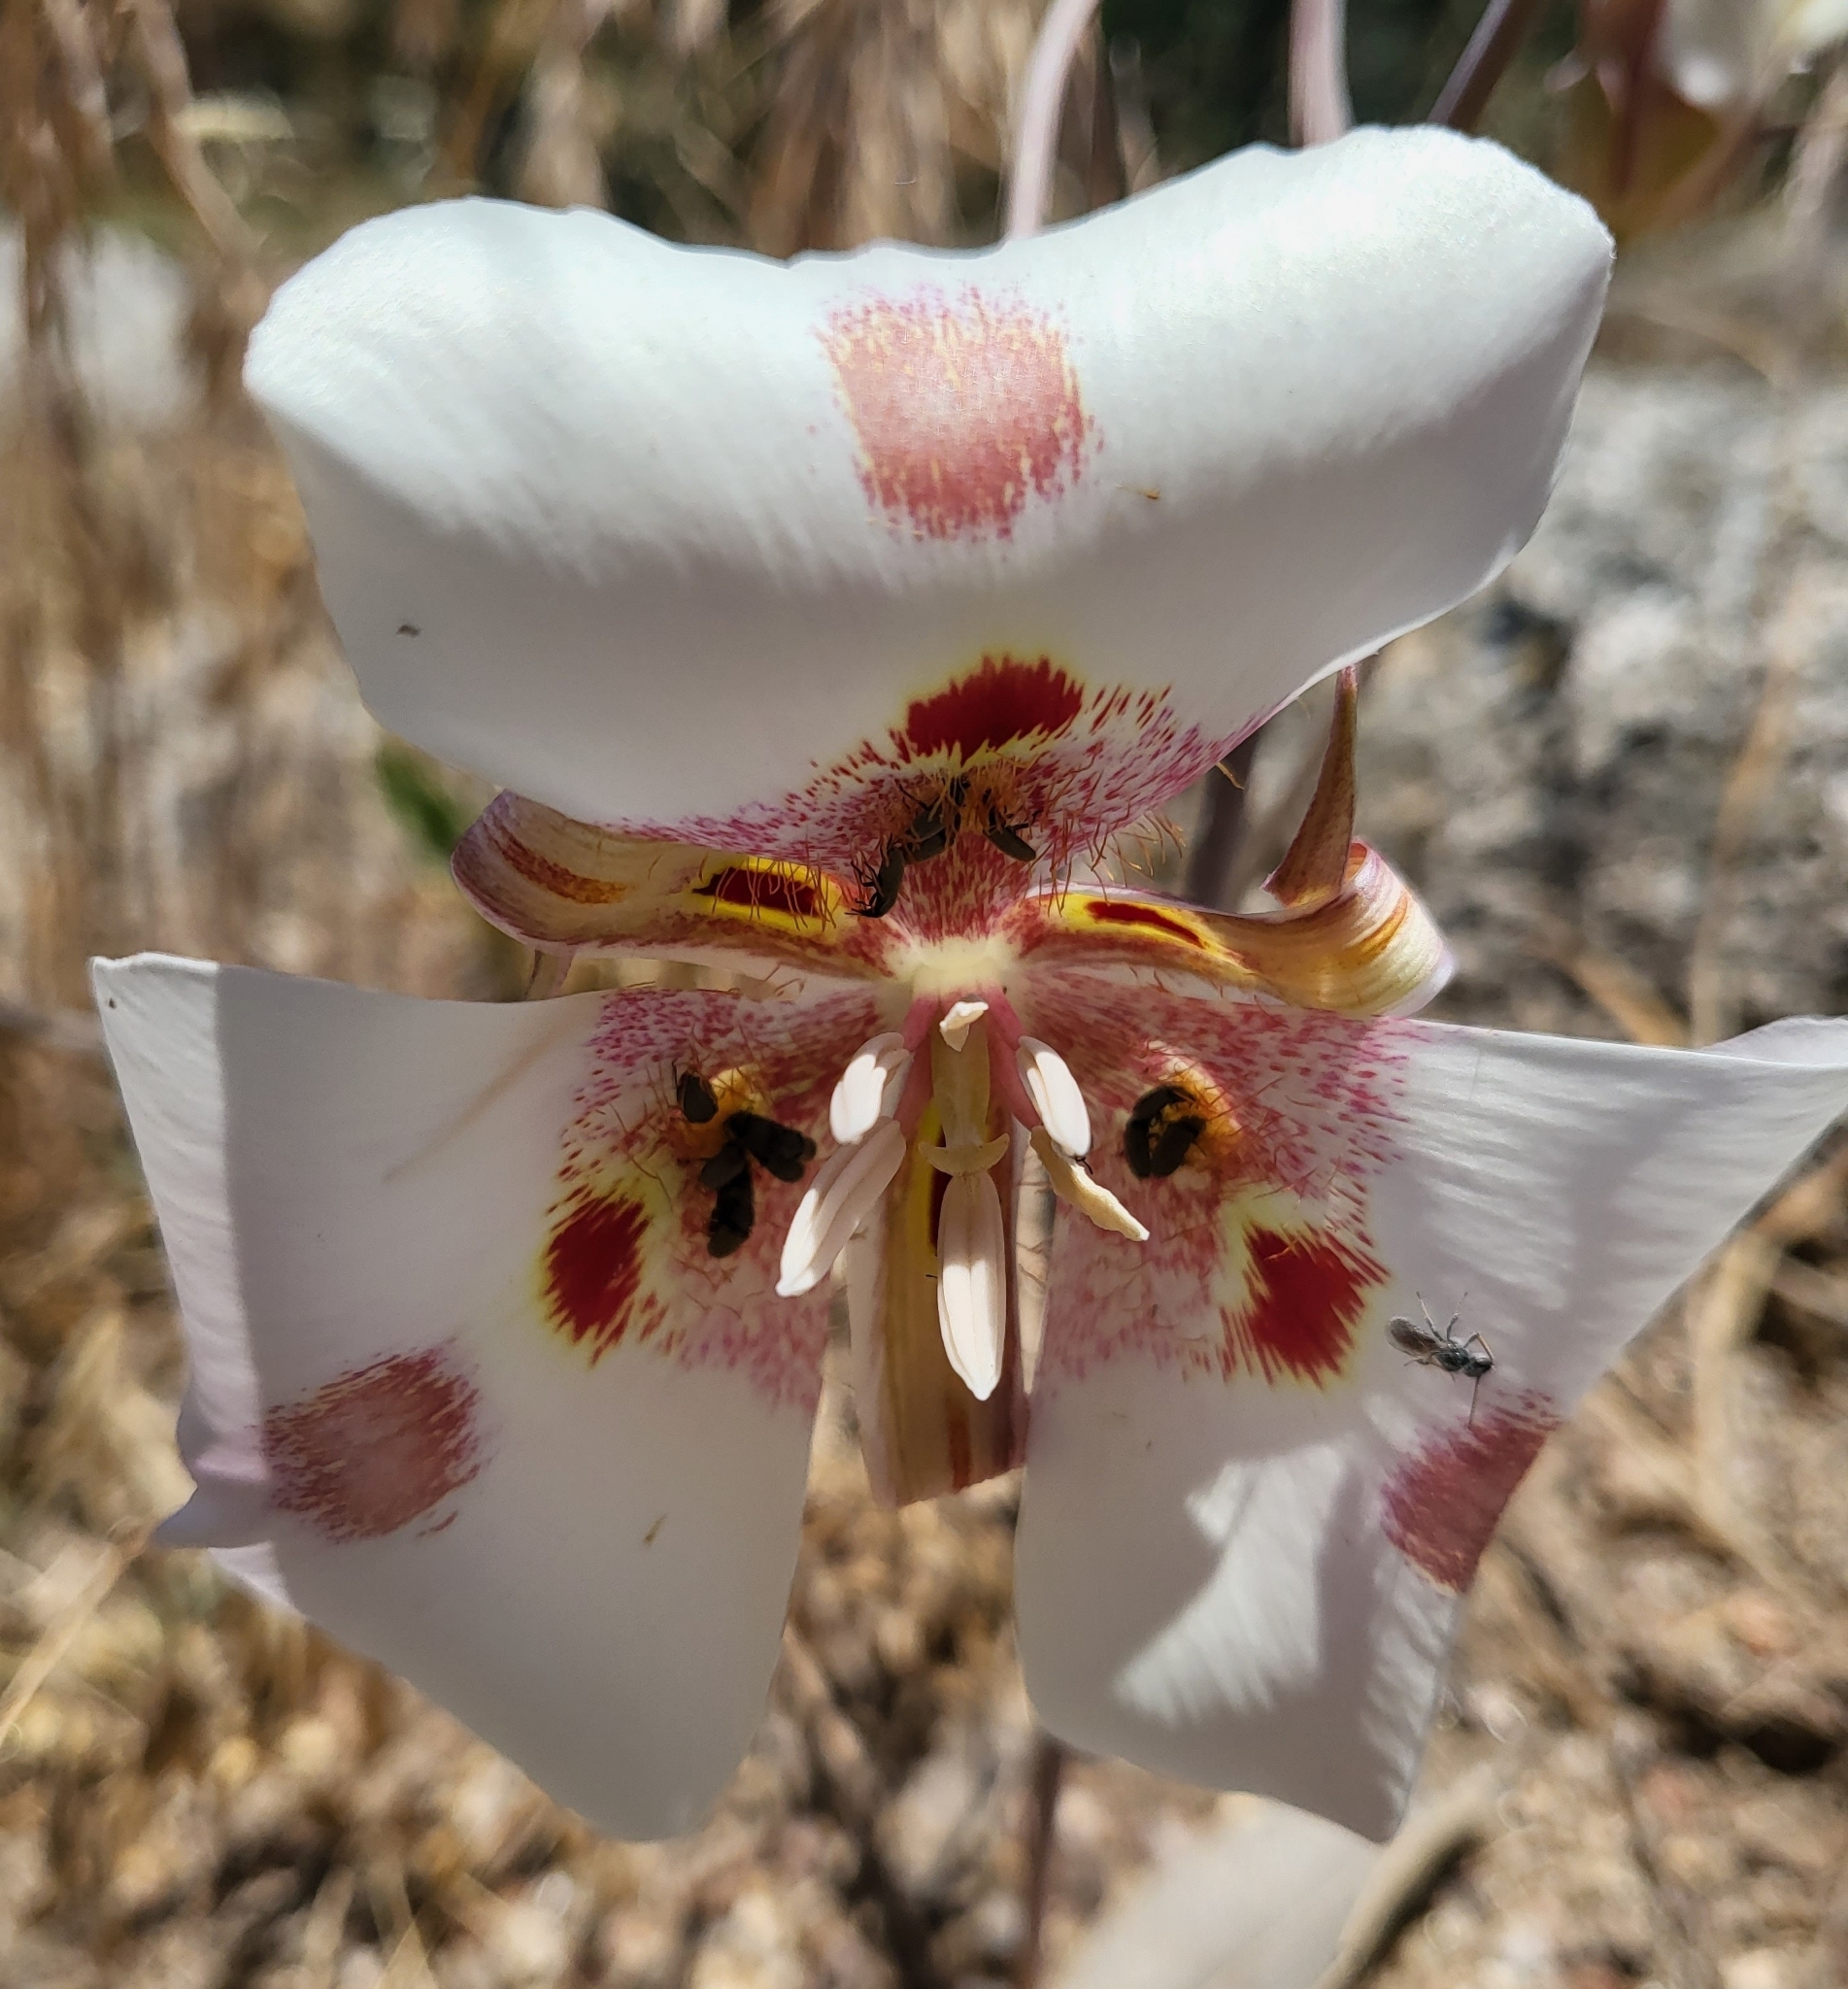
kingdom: Plantae
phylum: Tracheophyta
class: Liliopsida
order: Liliales
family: Liliaceae
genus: Calochortus
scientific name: Calochortus venustus
